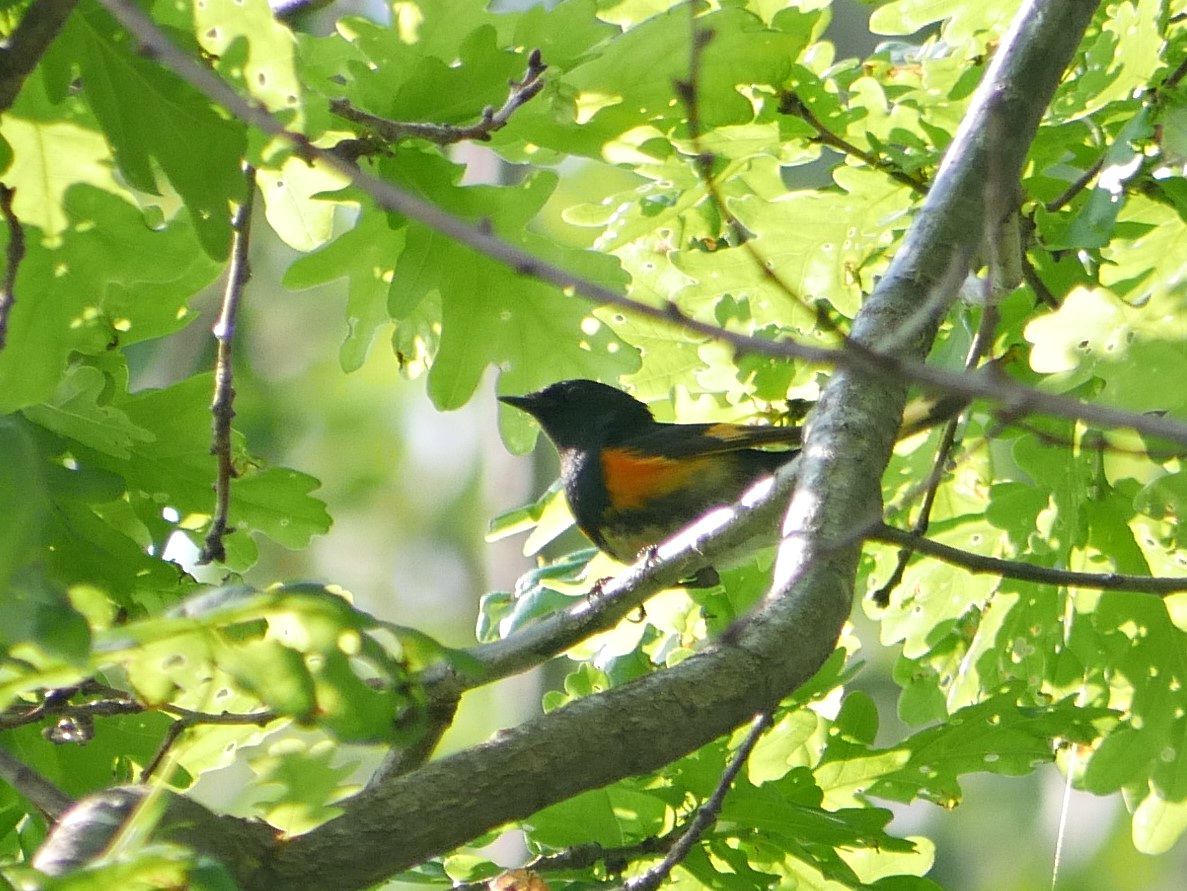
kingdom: Animalia
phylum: Chordata
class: Aves
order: Passeriformes
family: Parulidae
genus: Setophaga
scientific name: Setophaga ruticilla
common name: American redstart
